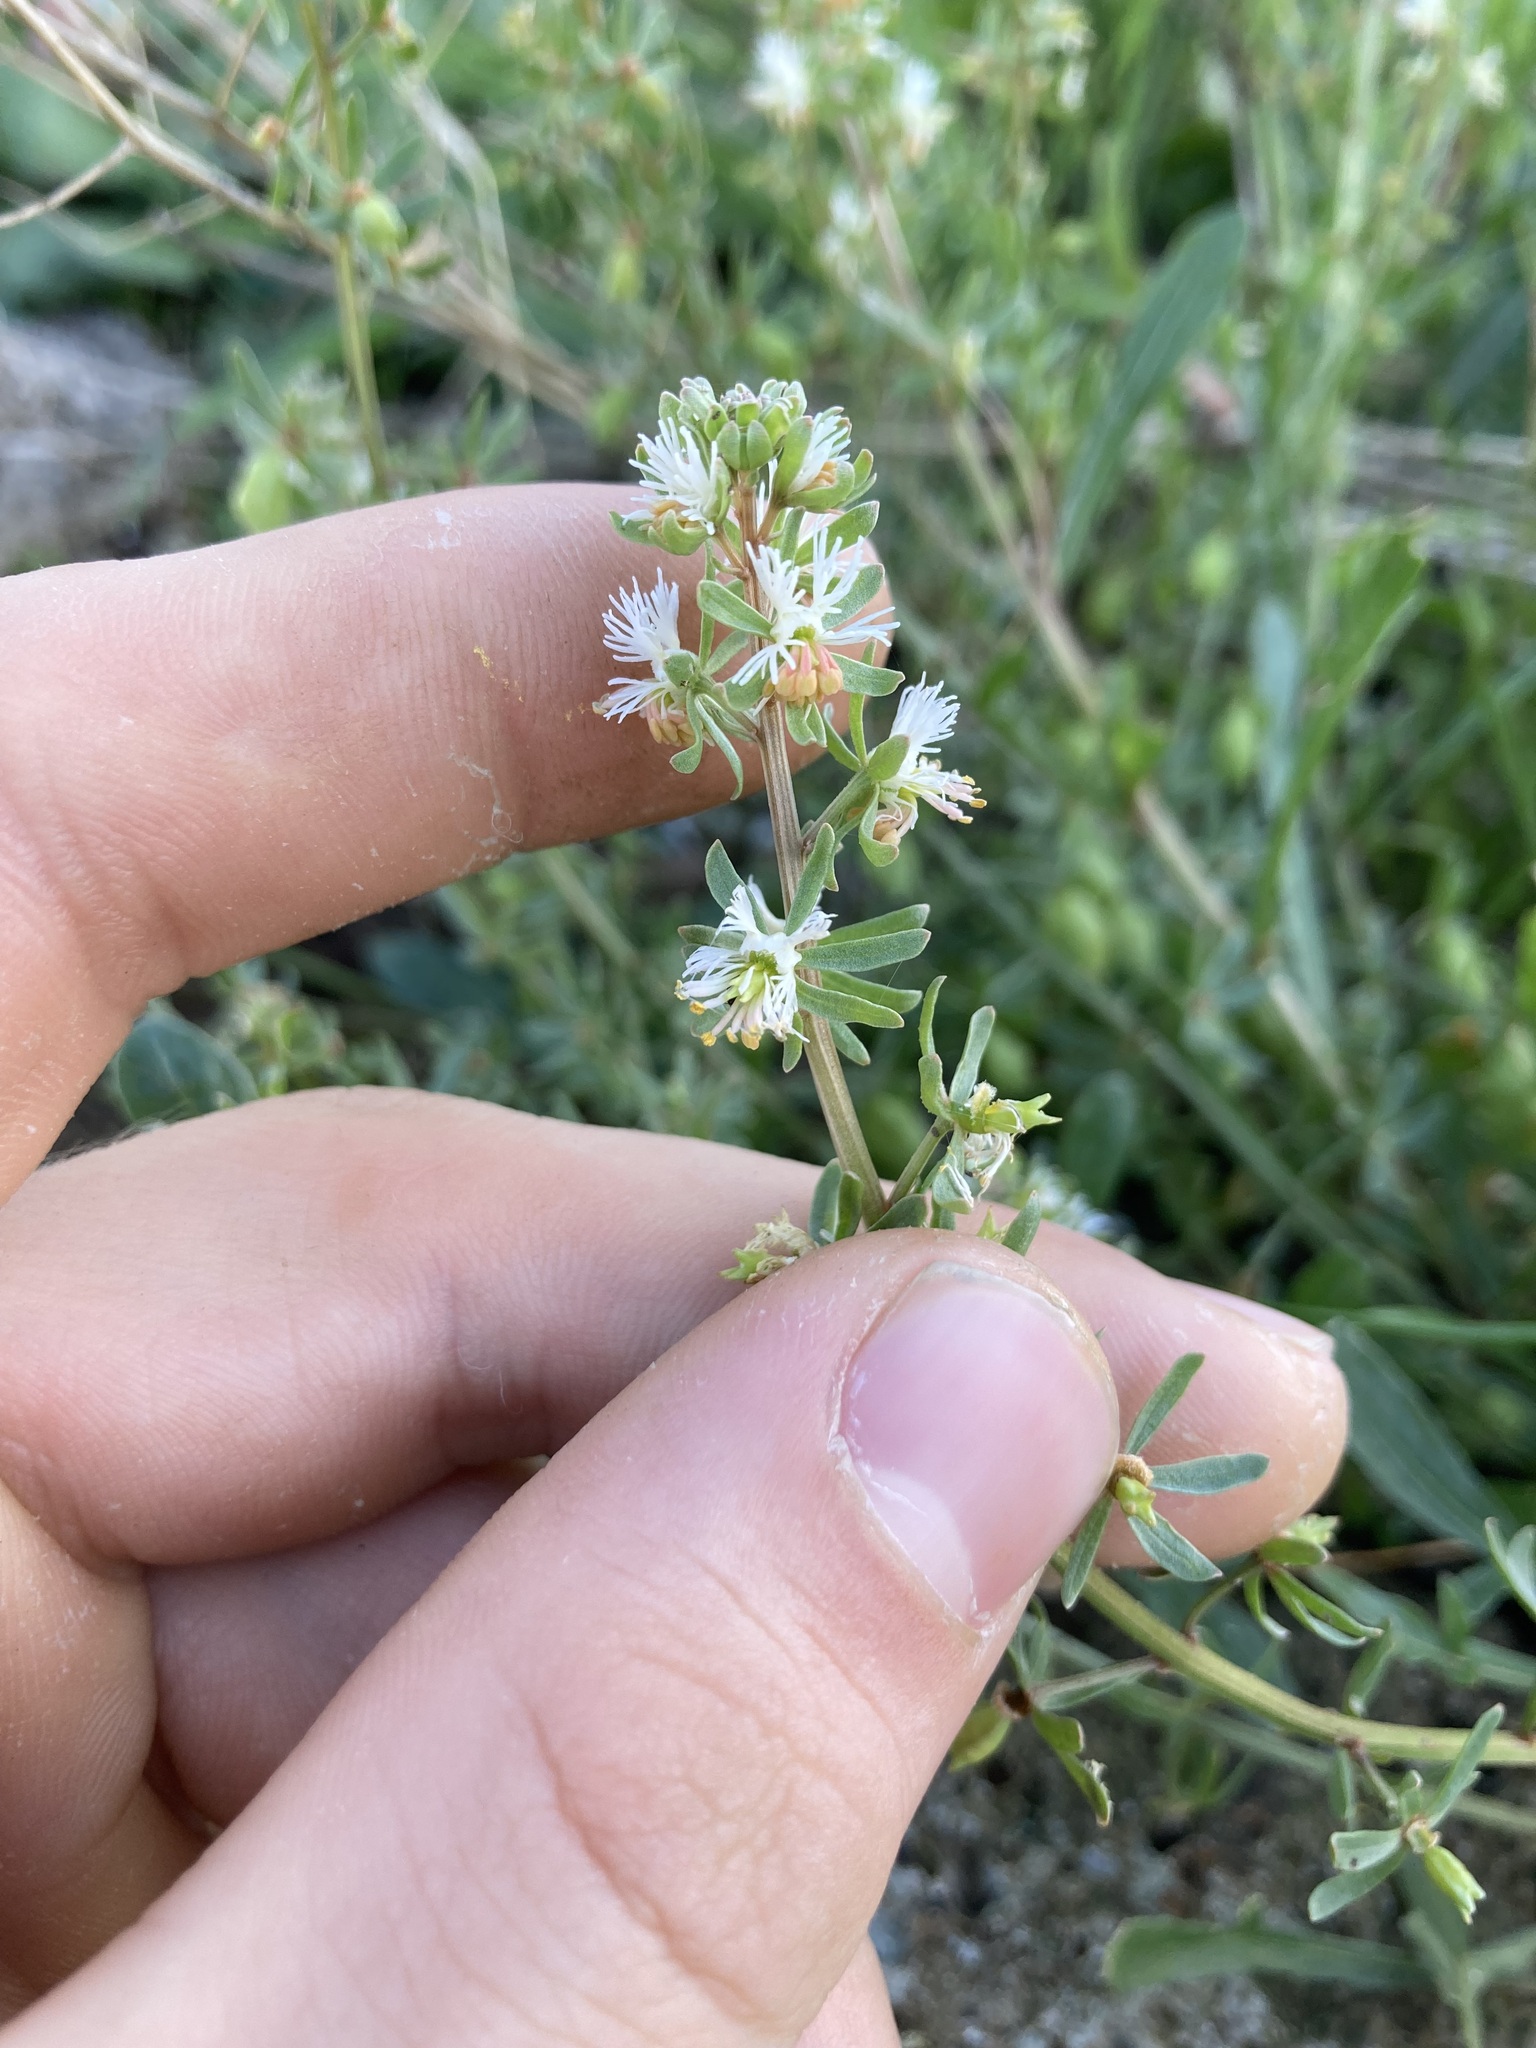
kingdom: Plantae
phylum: Tracheophyta
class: Magnoliopsida
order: Brassicales
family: Resedaceae
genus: Reseda
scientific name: Reseda phyteuma
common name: Corn mignonette
